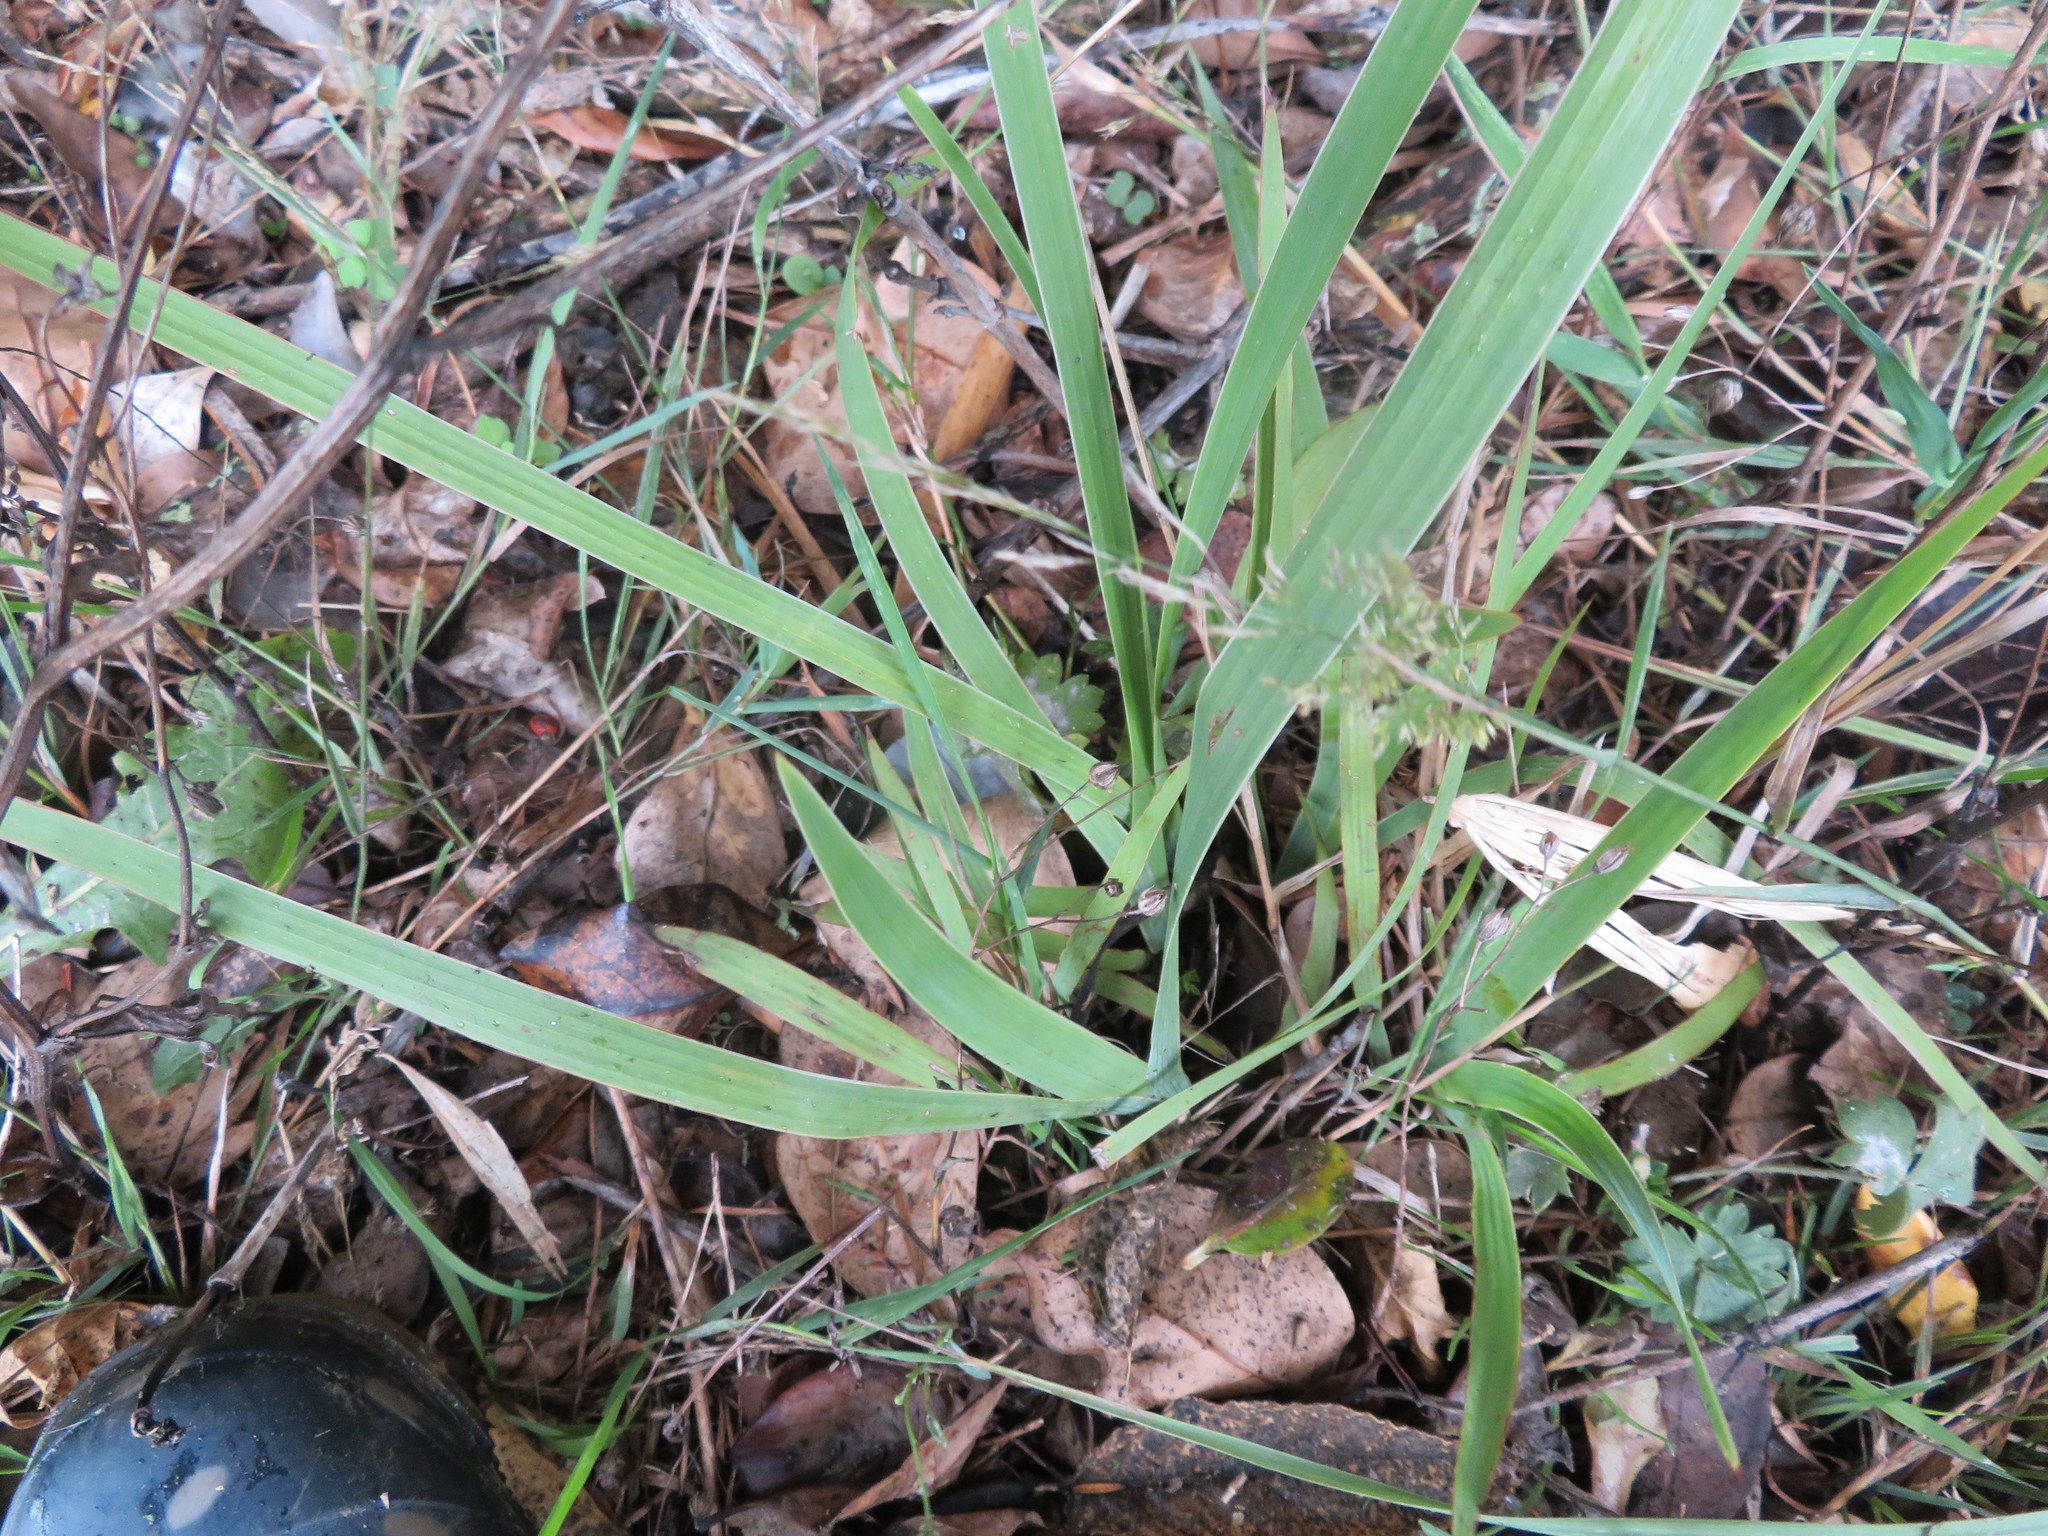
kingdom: Plantae
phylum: Tracheophyta
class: Liliopsida
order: Asparagales
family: Iridaceae
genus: Aristea
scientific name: Aristea ecklonii
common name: Blue corn-lily
